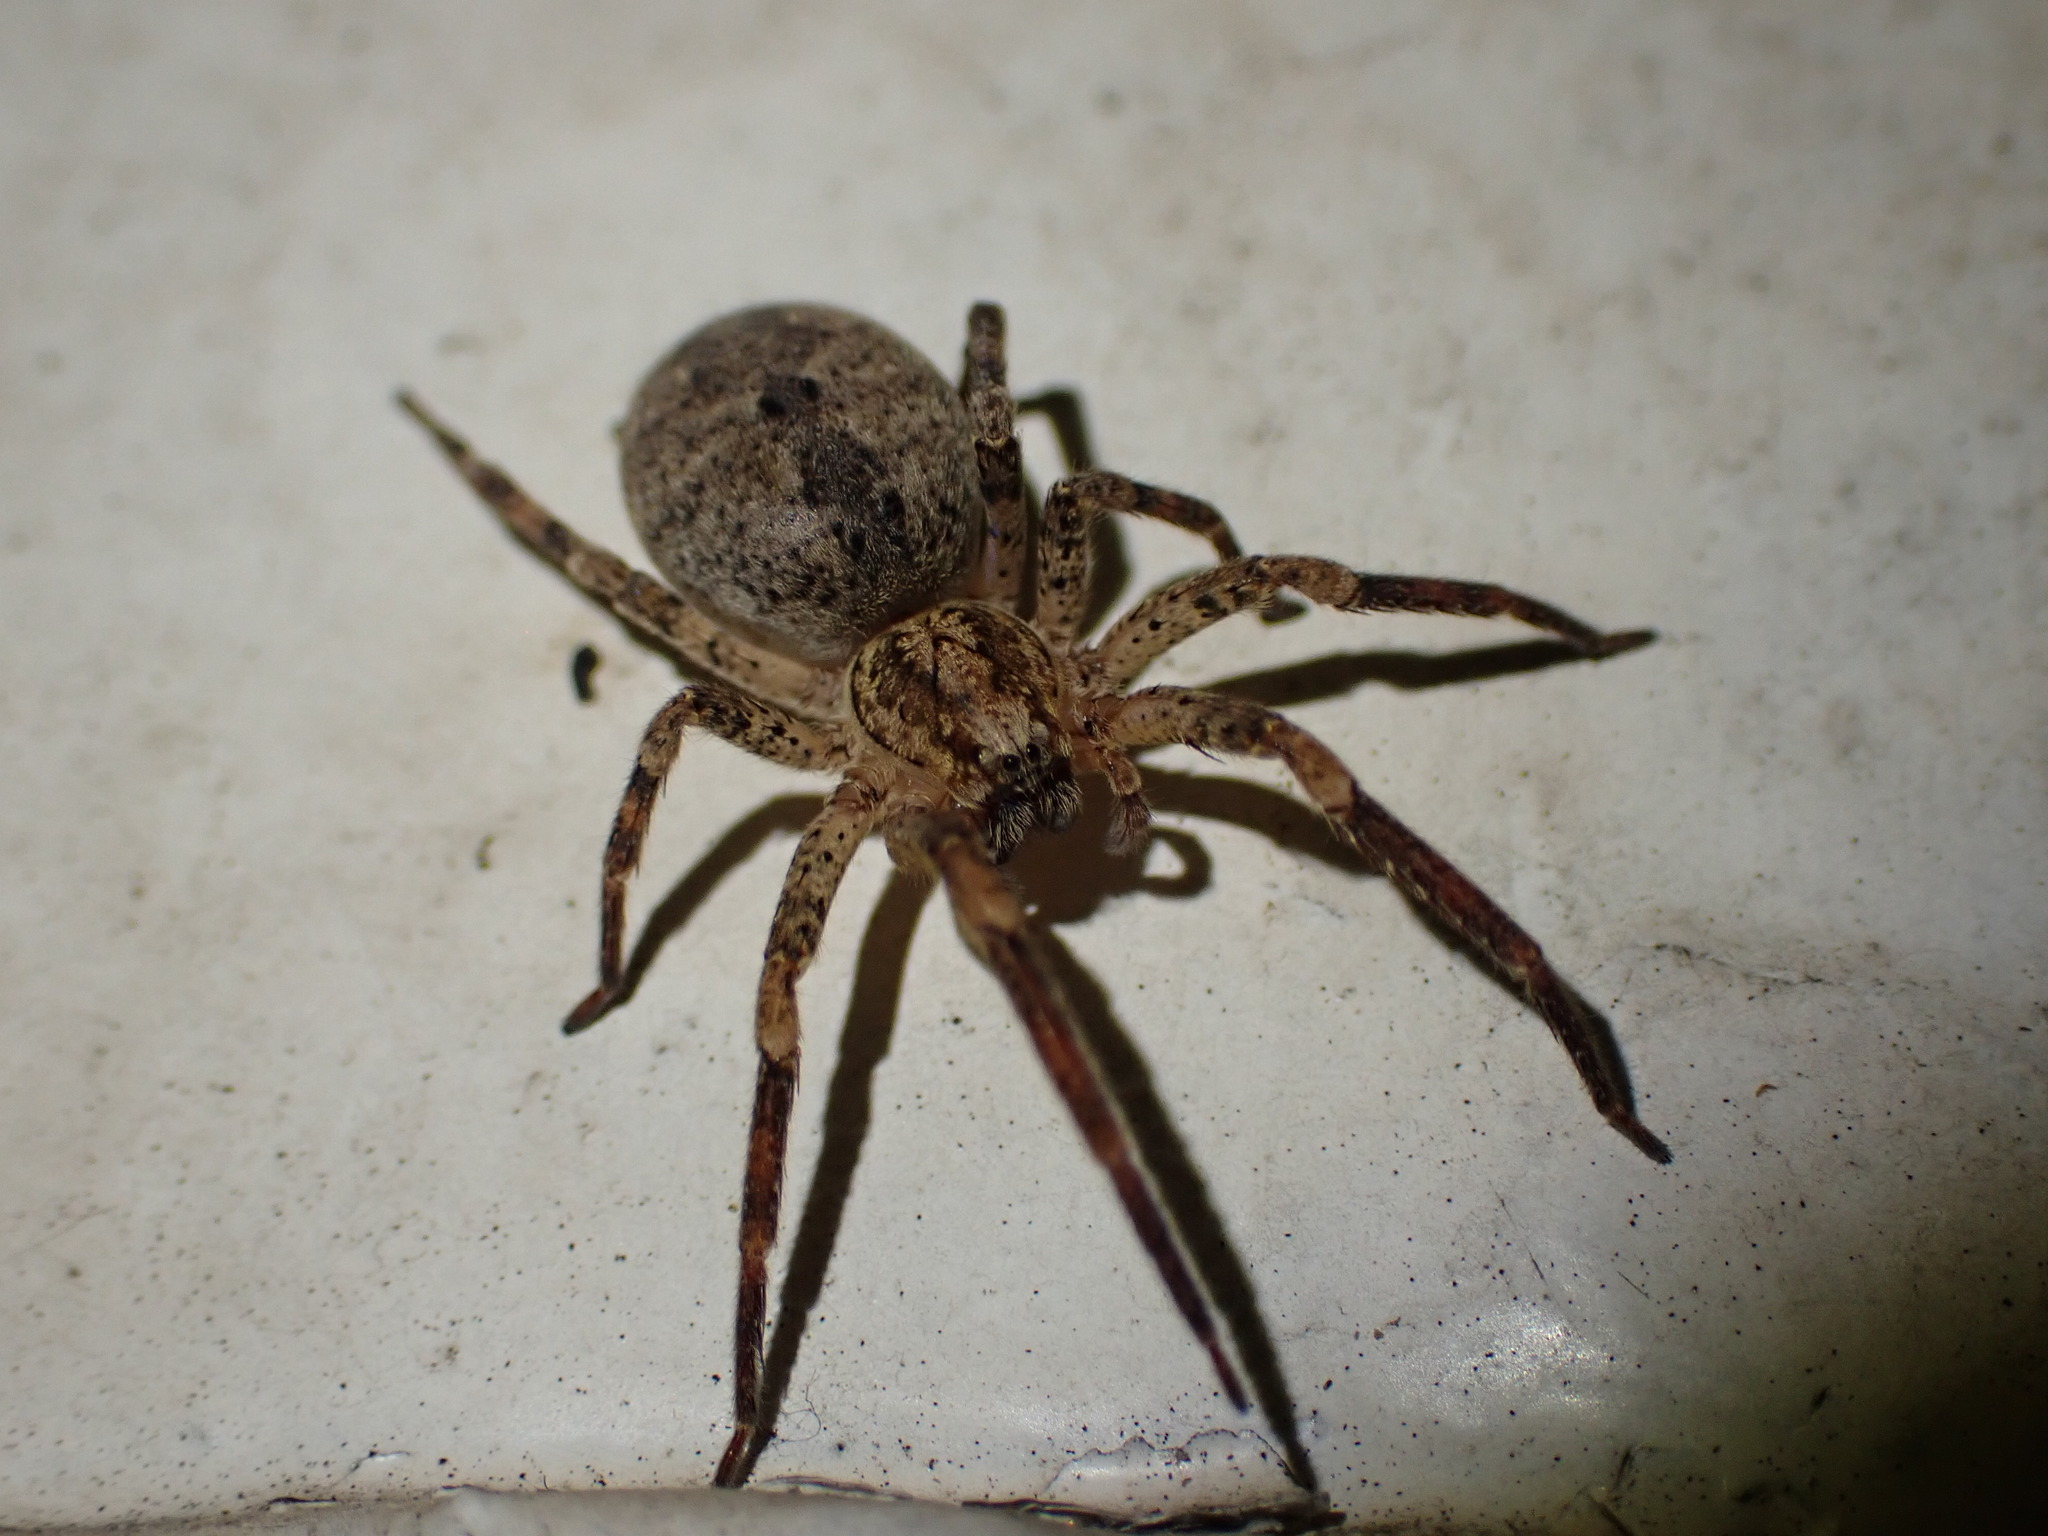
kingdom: Animalia
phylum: Arthropoda
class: Arachnida
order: Araneae
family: Zoropsidae
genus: Zoropsis
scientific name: Zoropsis spinimana
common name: Zoropsid spider
